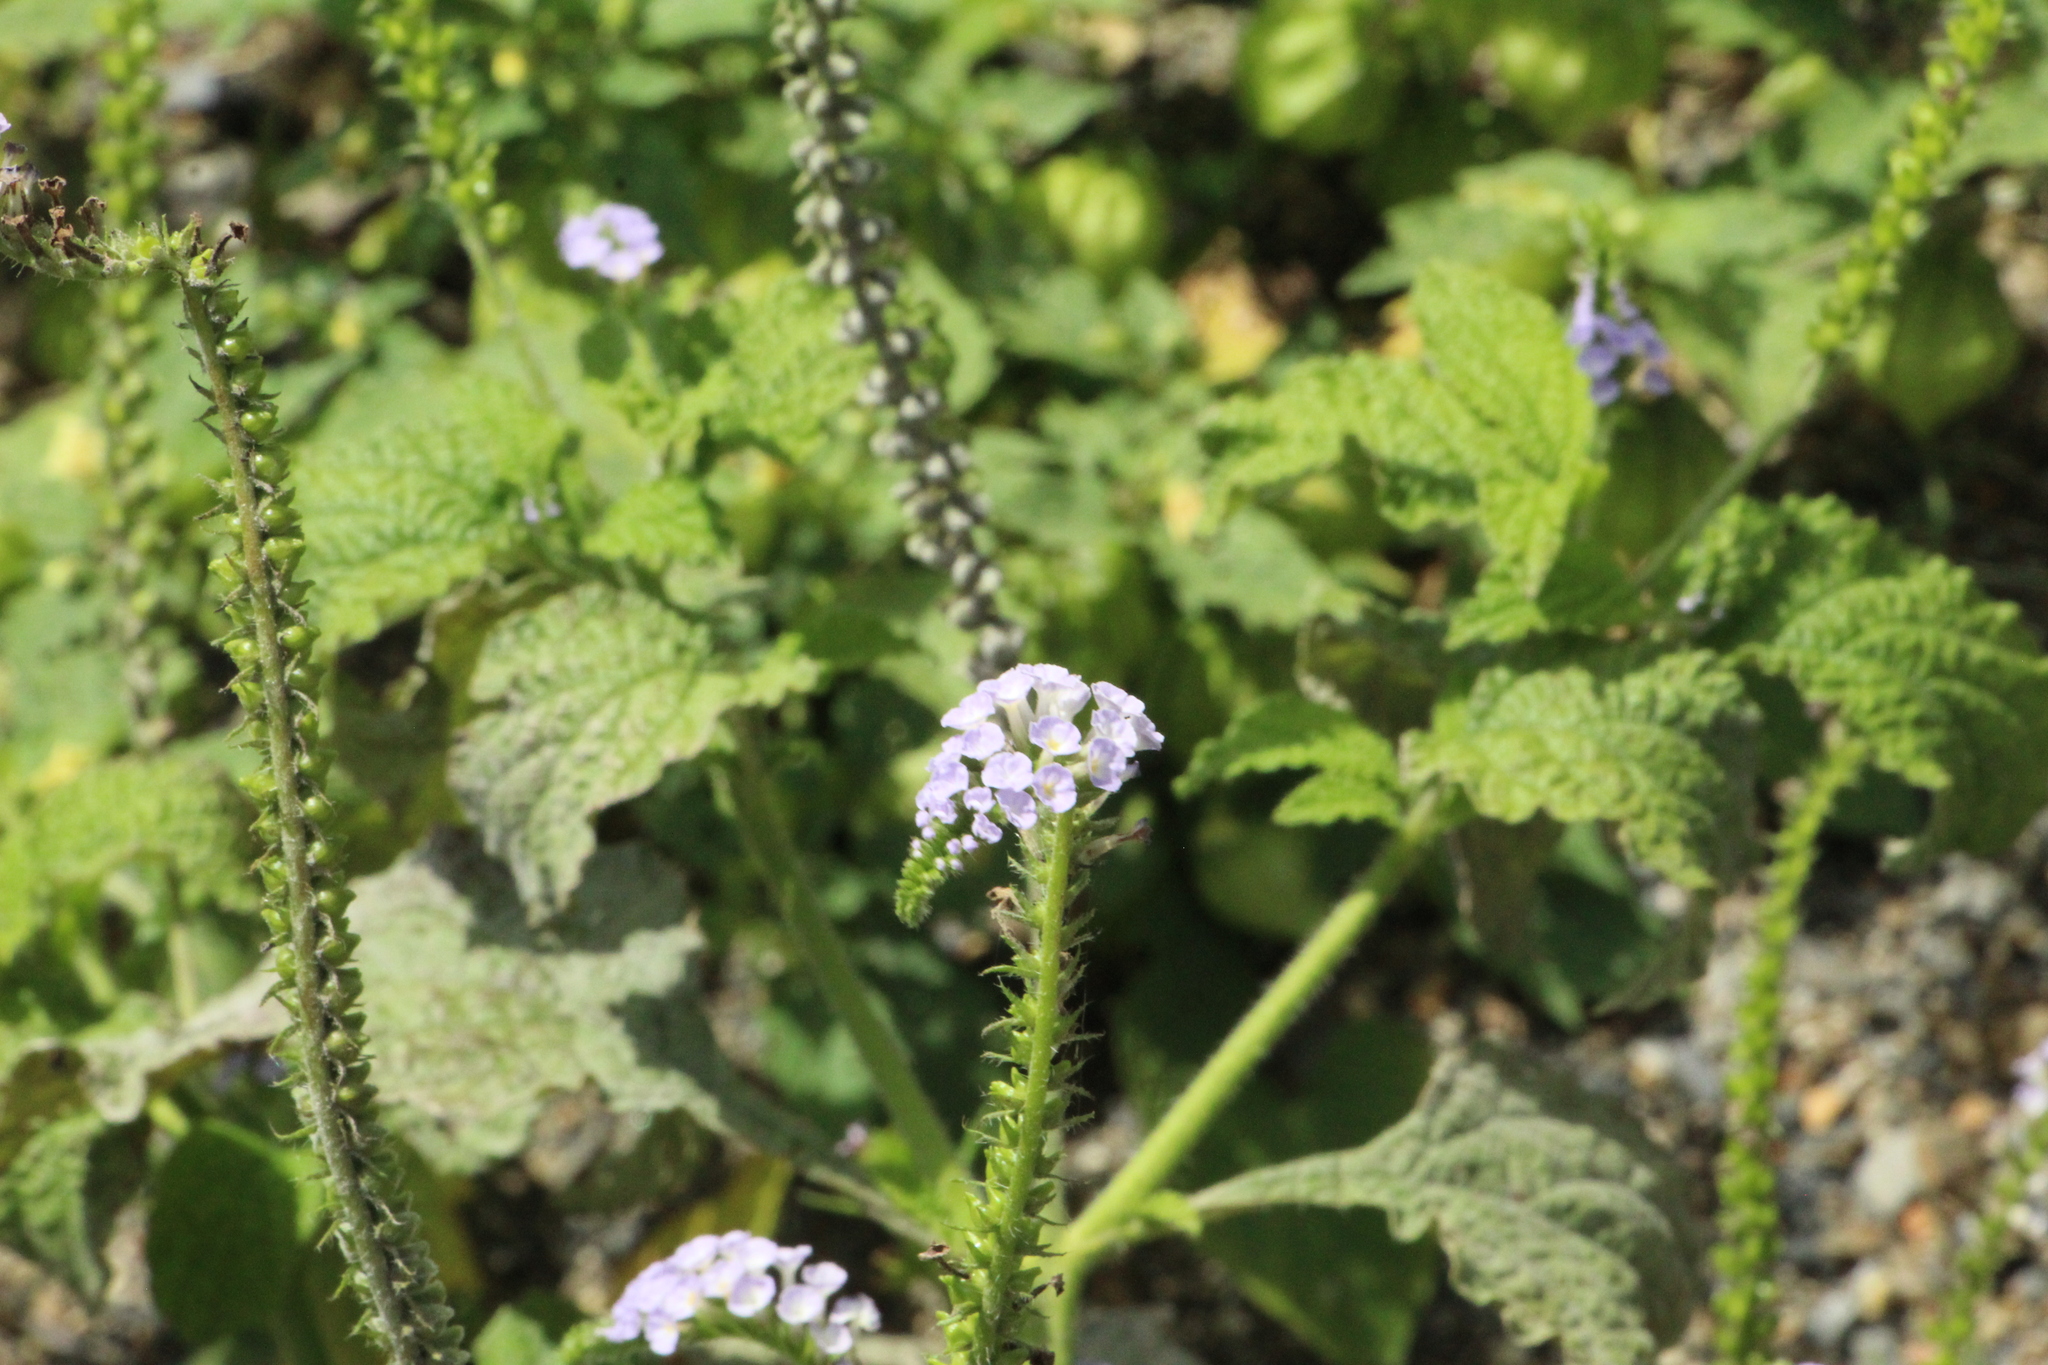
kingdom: Plantae
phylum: Tracheophyta
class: Magnoliopsida
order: Boraginales
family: Heliotropiaceae
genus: Heliotropium
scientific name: Heliotropium indicum
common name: Indian heliotrope
